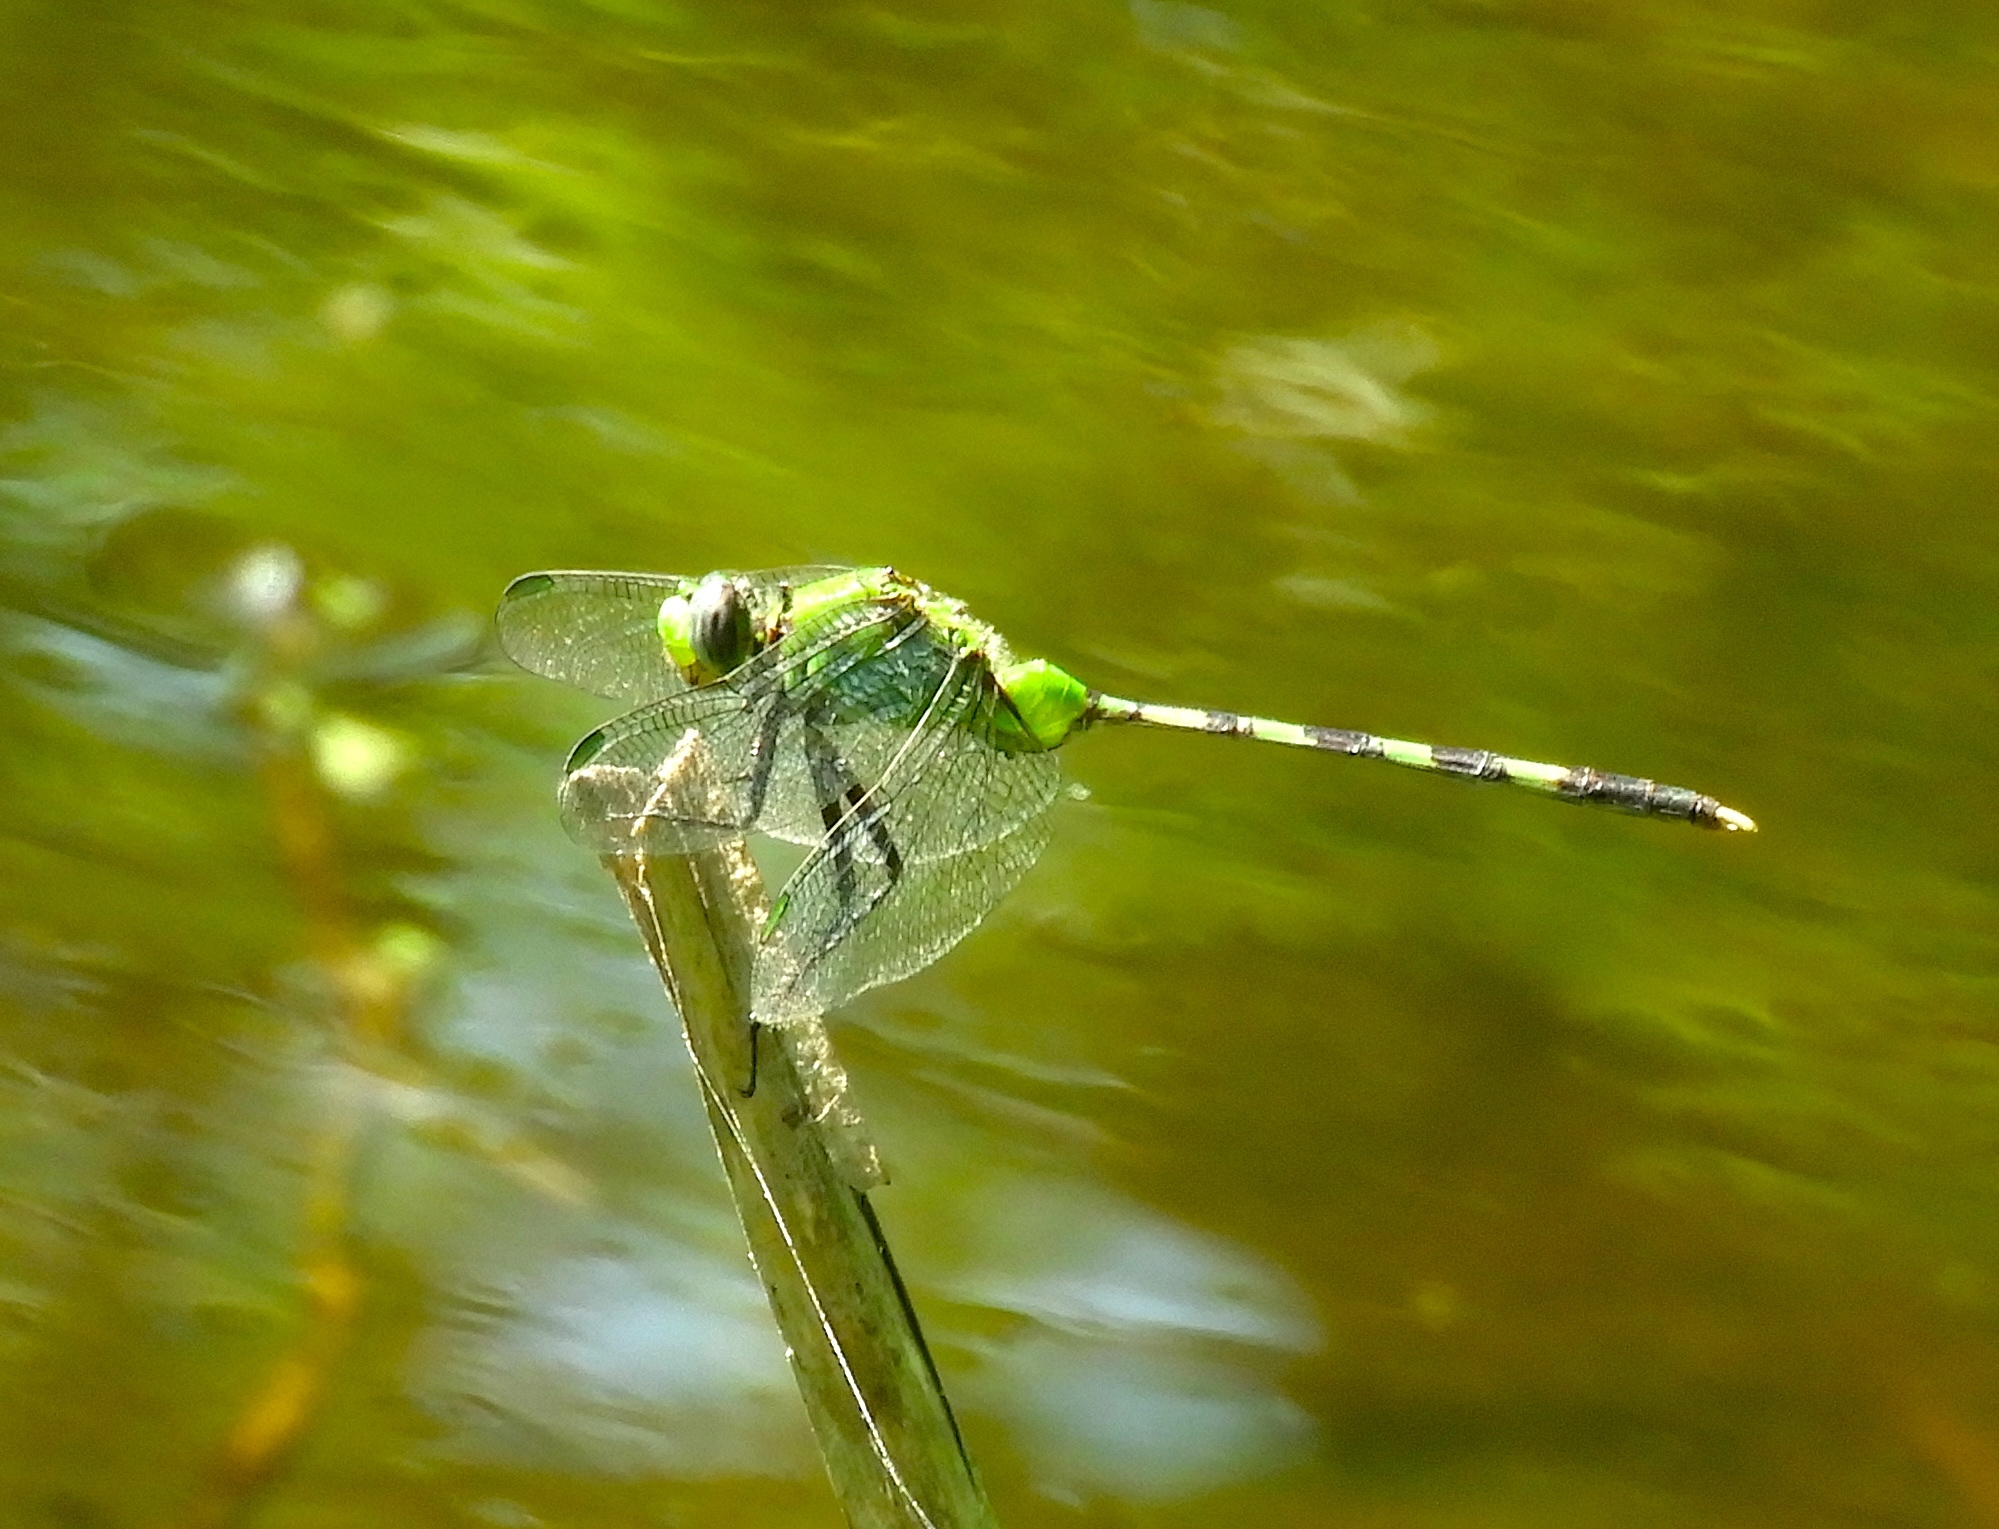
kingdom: Animalia
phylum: Arthropoda
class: Insecta
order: Odonata
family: Libellulidae
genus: Erythemis
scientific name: Erythemis vesiculosa
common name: Great pondhawk
